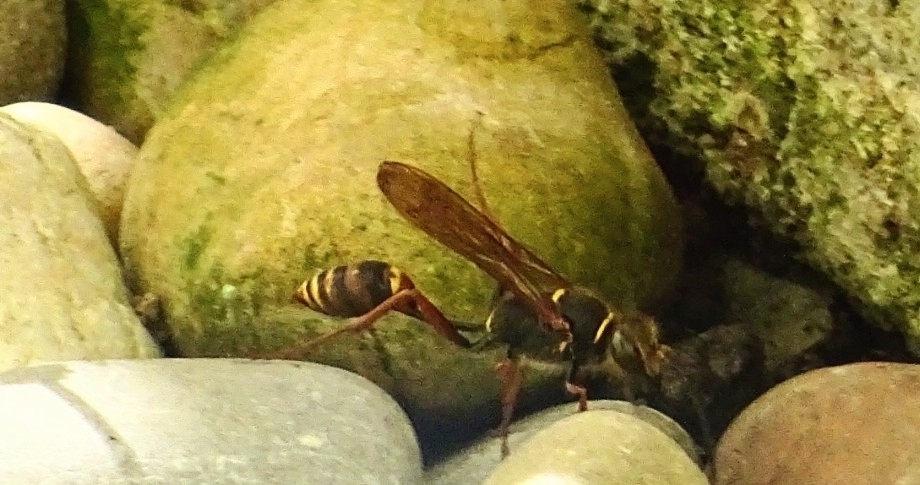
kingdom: Animalia
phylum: Arthropoda
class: Insecta
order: Hymenoptera
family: Sphecidae
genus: Sceliphron
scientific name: Sceliphron curvatum
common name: Pèlopèe
